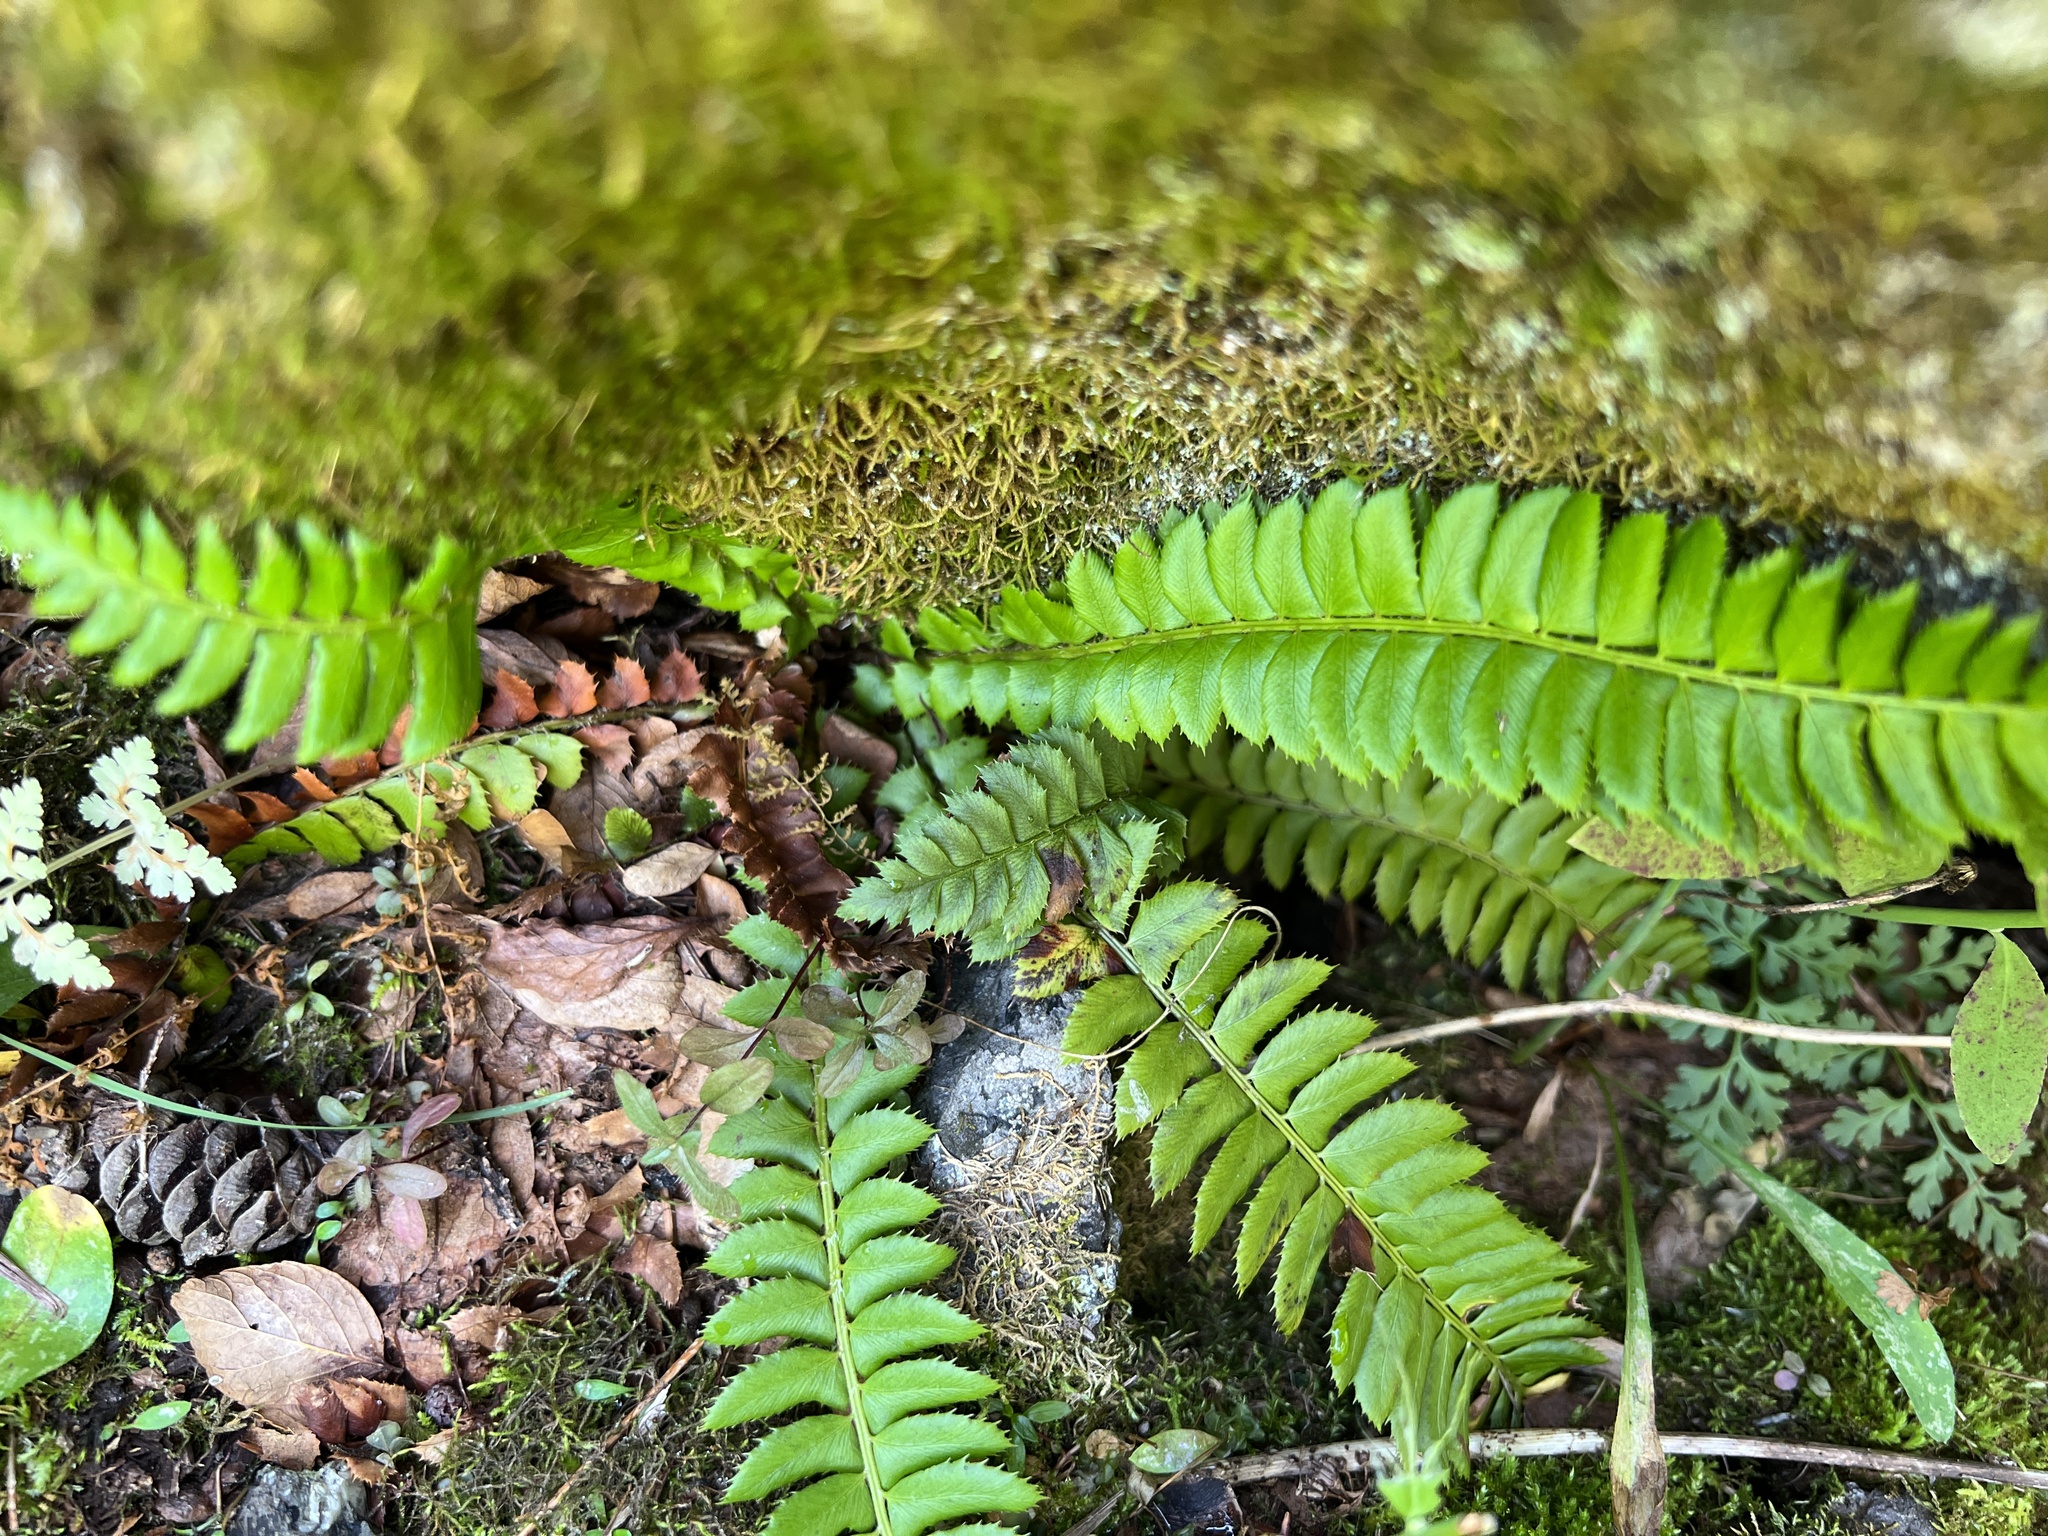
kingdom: Plantae
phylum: Tracheophyta
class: Polypodiopsida
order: Polypodiales
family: Dryopteridaceae
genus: Polystichum
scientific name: Polystichum lonchitis
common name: Holly fern
